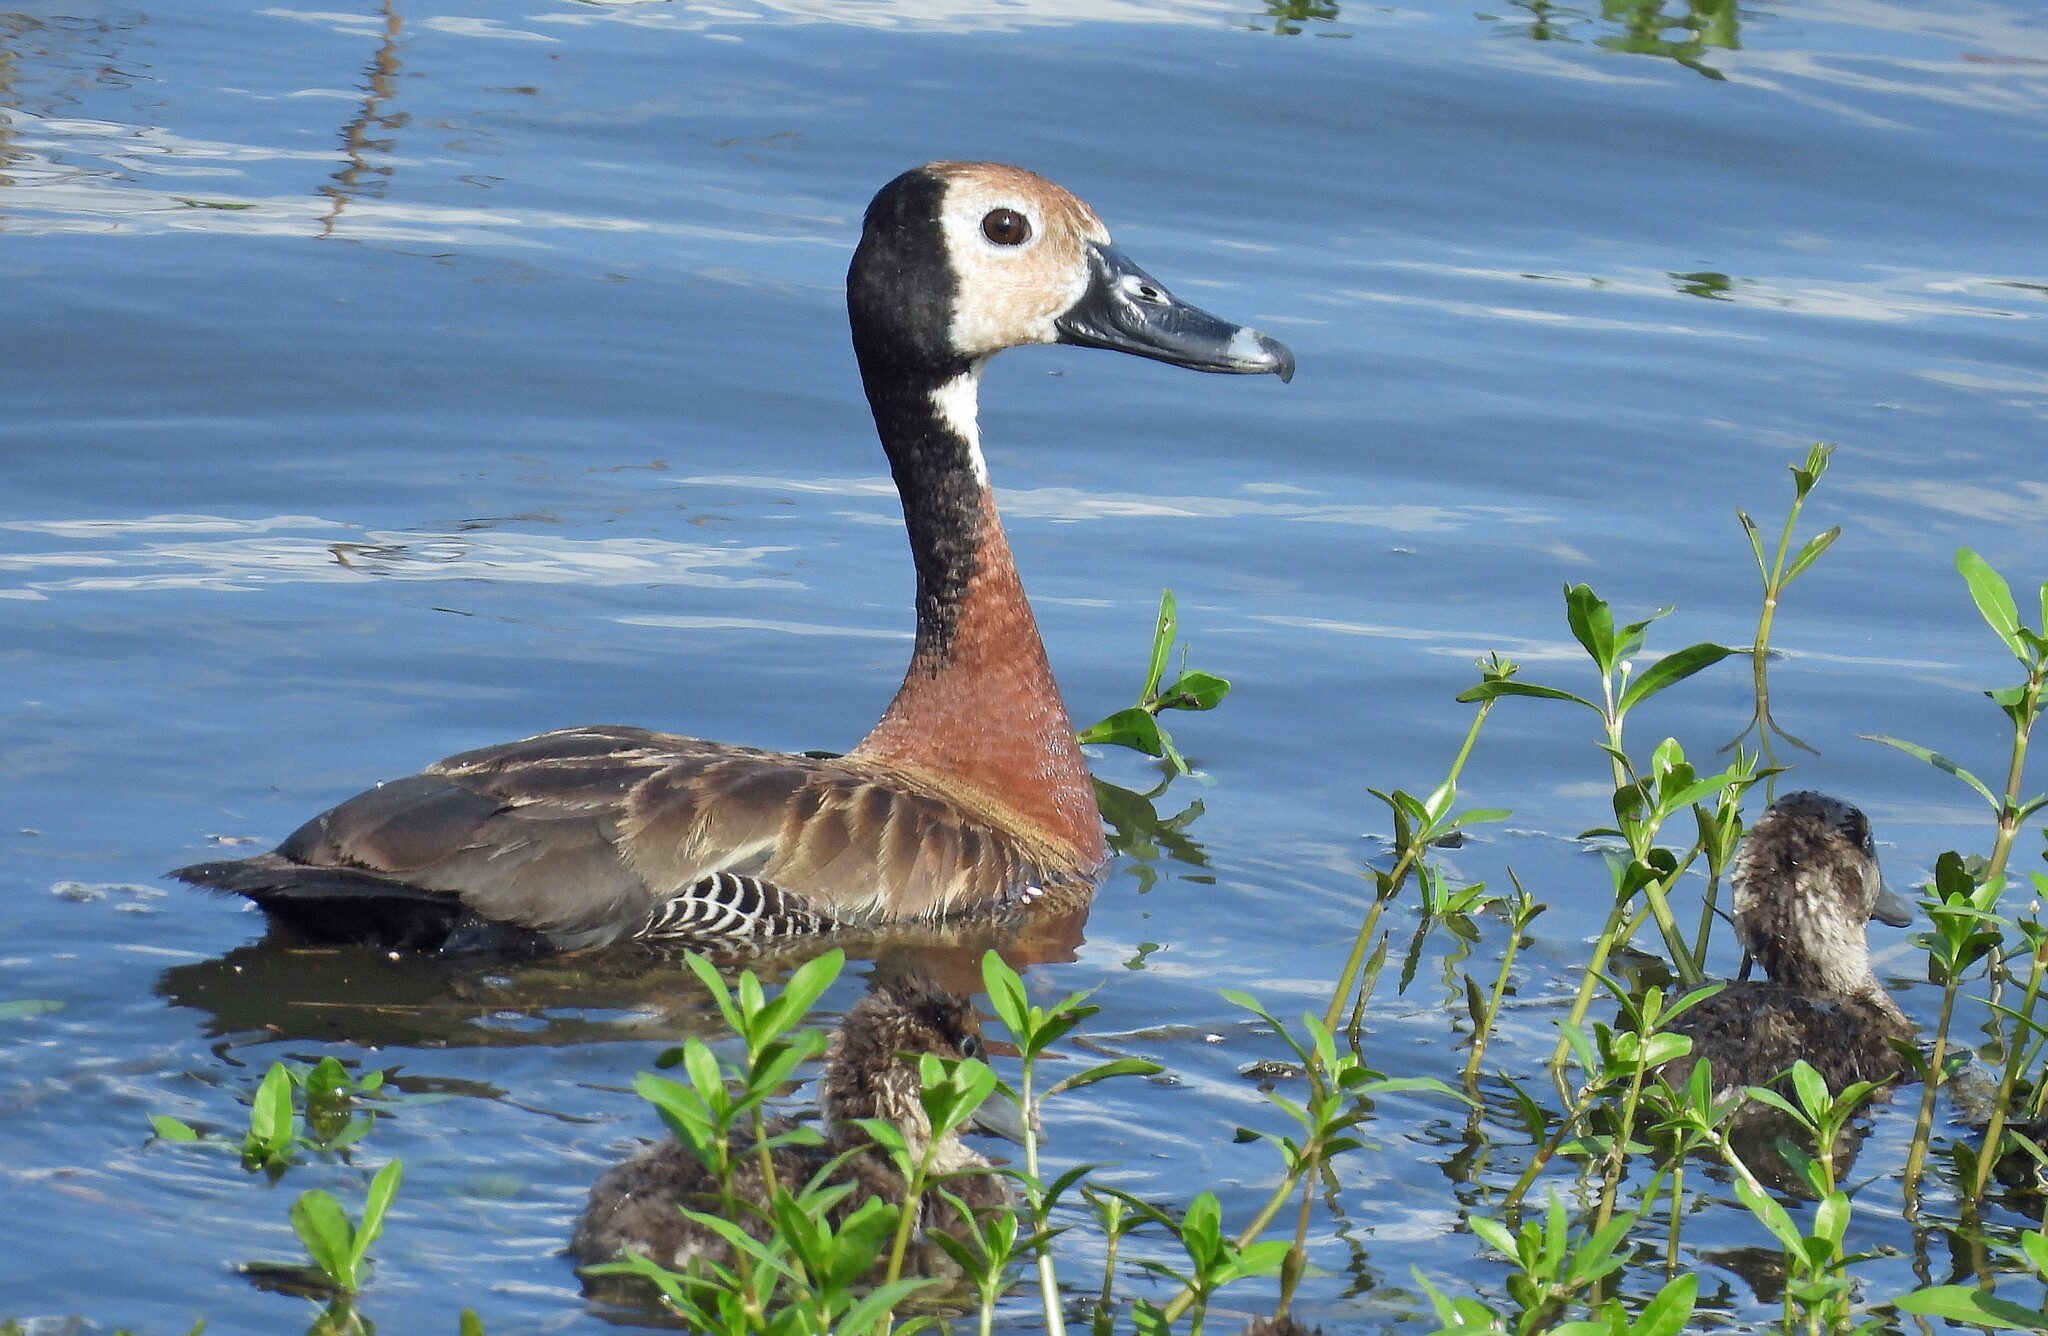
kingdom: Animalia
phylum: Chordata
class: Aves
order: Anseriformes
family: Anatidae
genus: Dendrocygna
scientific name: Dendrocygna viduata
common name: White-faced whistling duck
